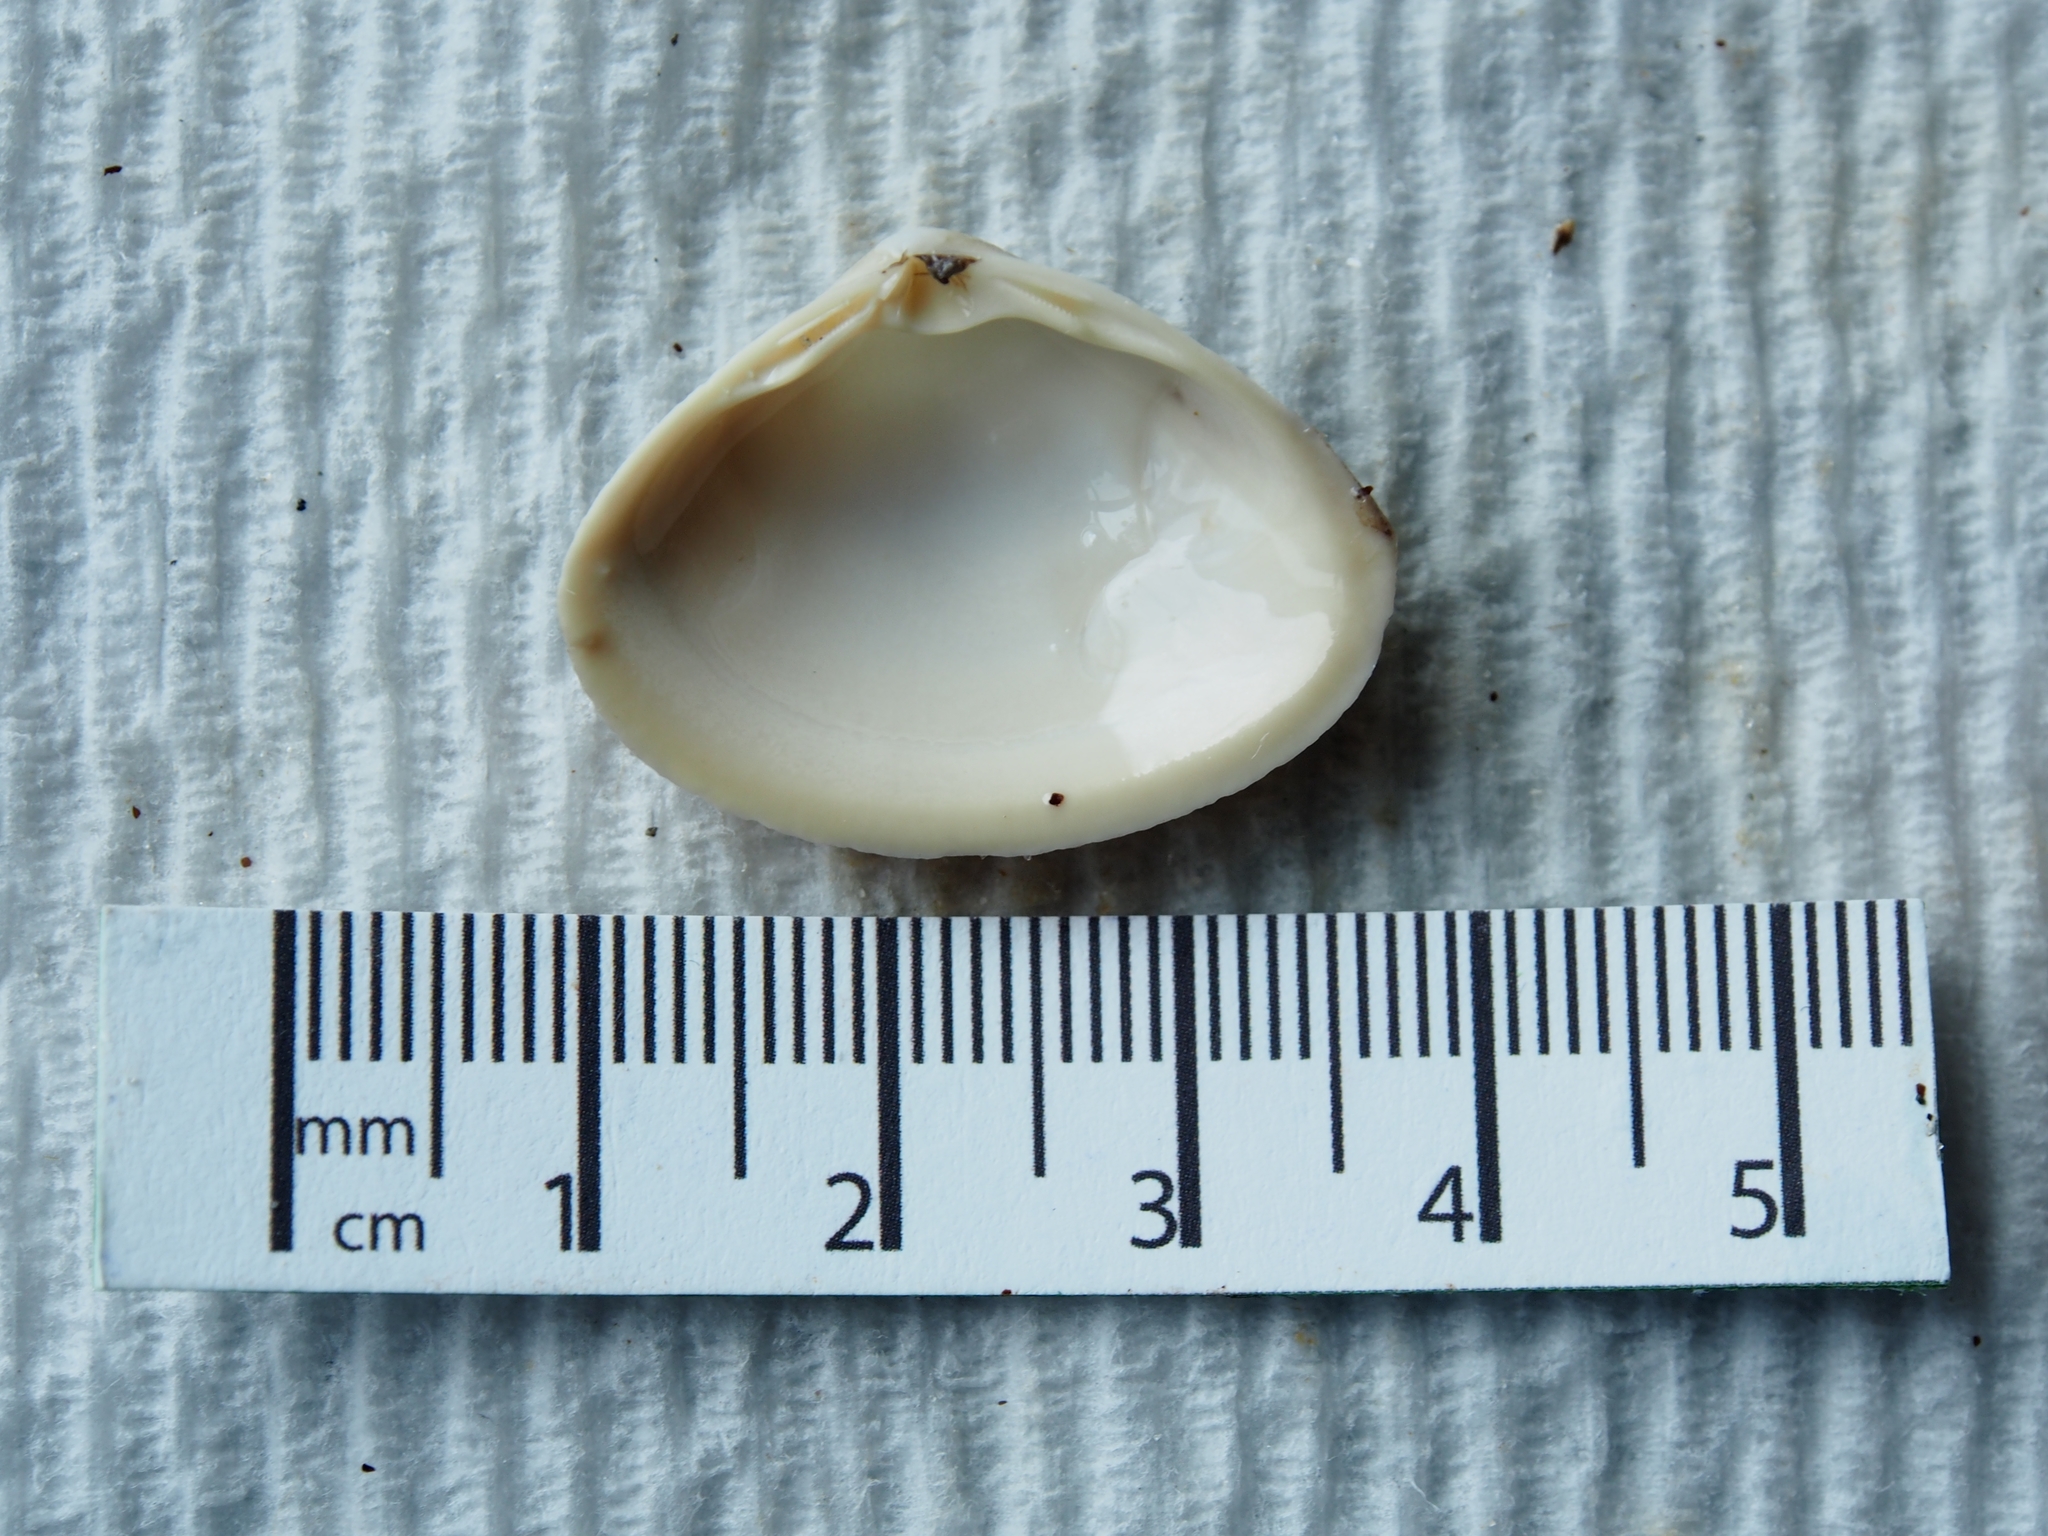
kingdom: Animalia
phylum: Mollusca
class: Bivalvia
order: Venerida
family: Mactridae
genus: Spisula
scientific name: Spisula solidissima
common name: Atlantic surf clam
